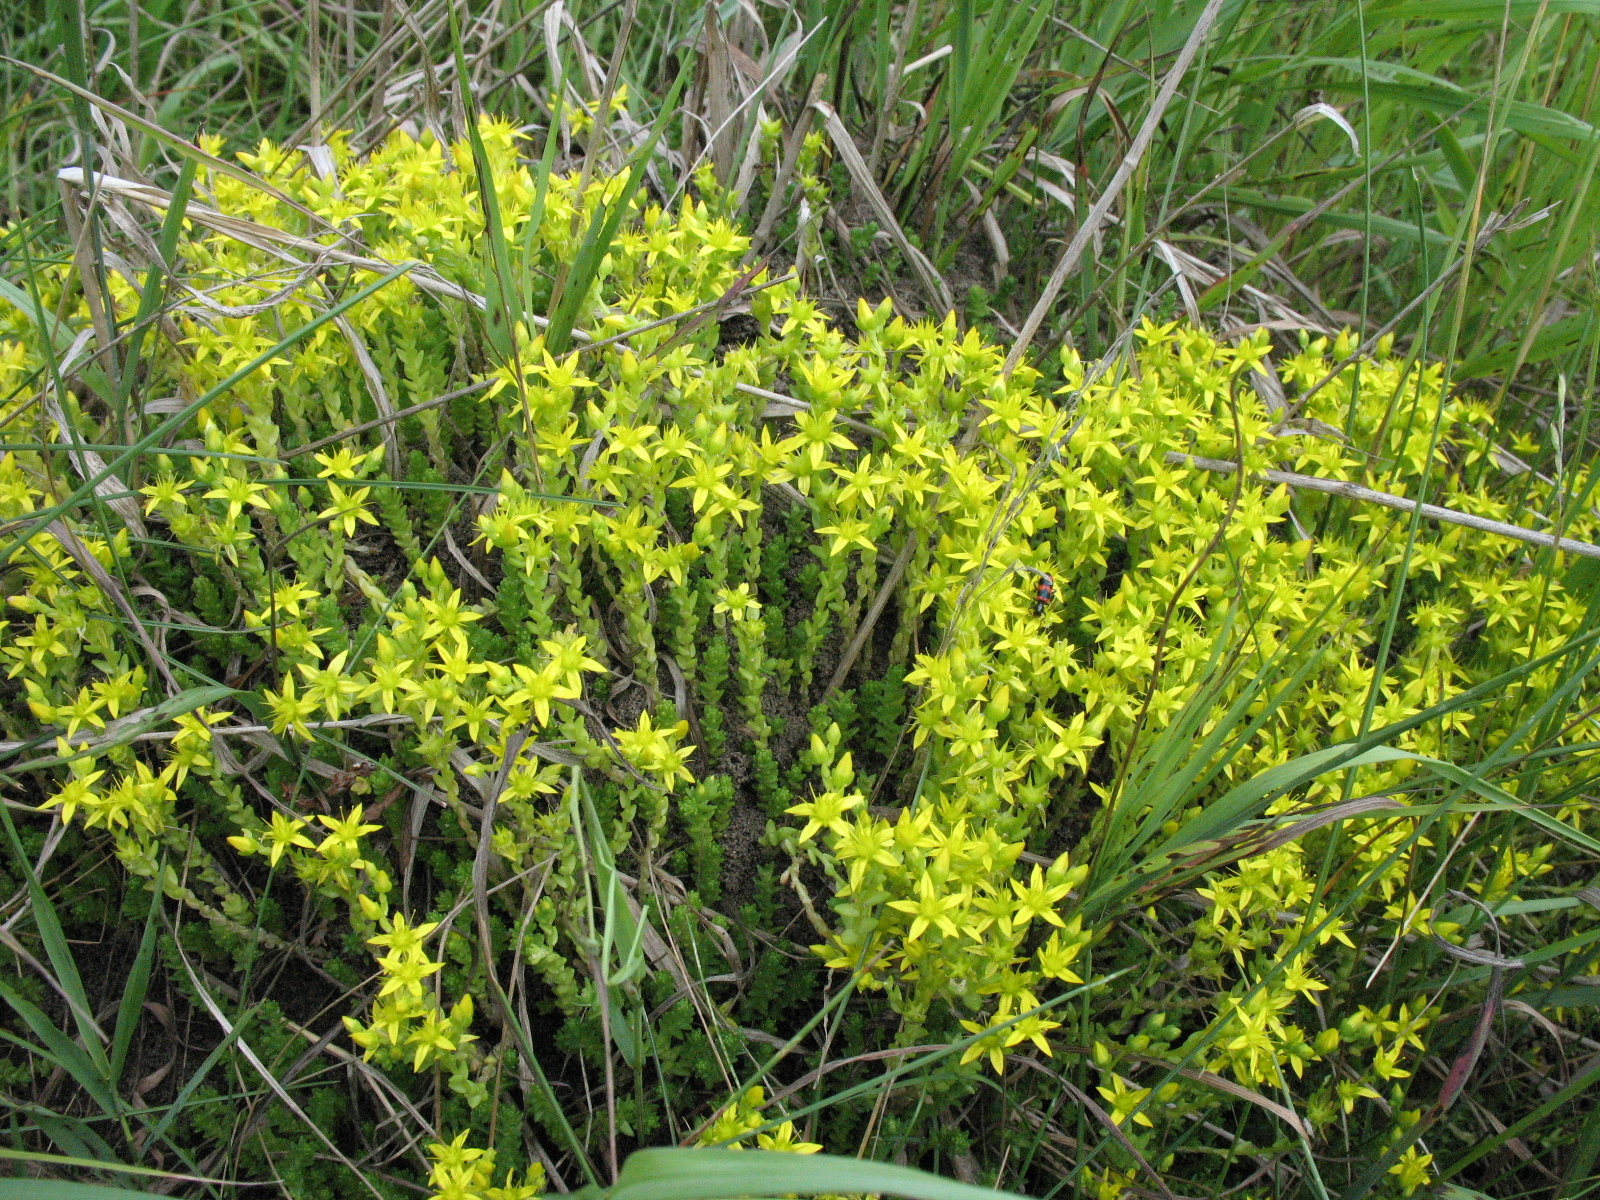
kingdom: Plantae
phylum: Tracheophyta
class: Magnoliopsida
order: Saxifragales
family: Crassulaceae
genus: Sedum
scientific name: Sedum acre
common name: Biting stonecrop
